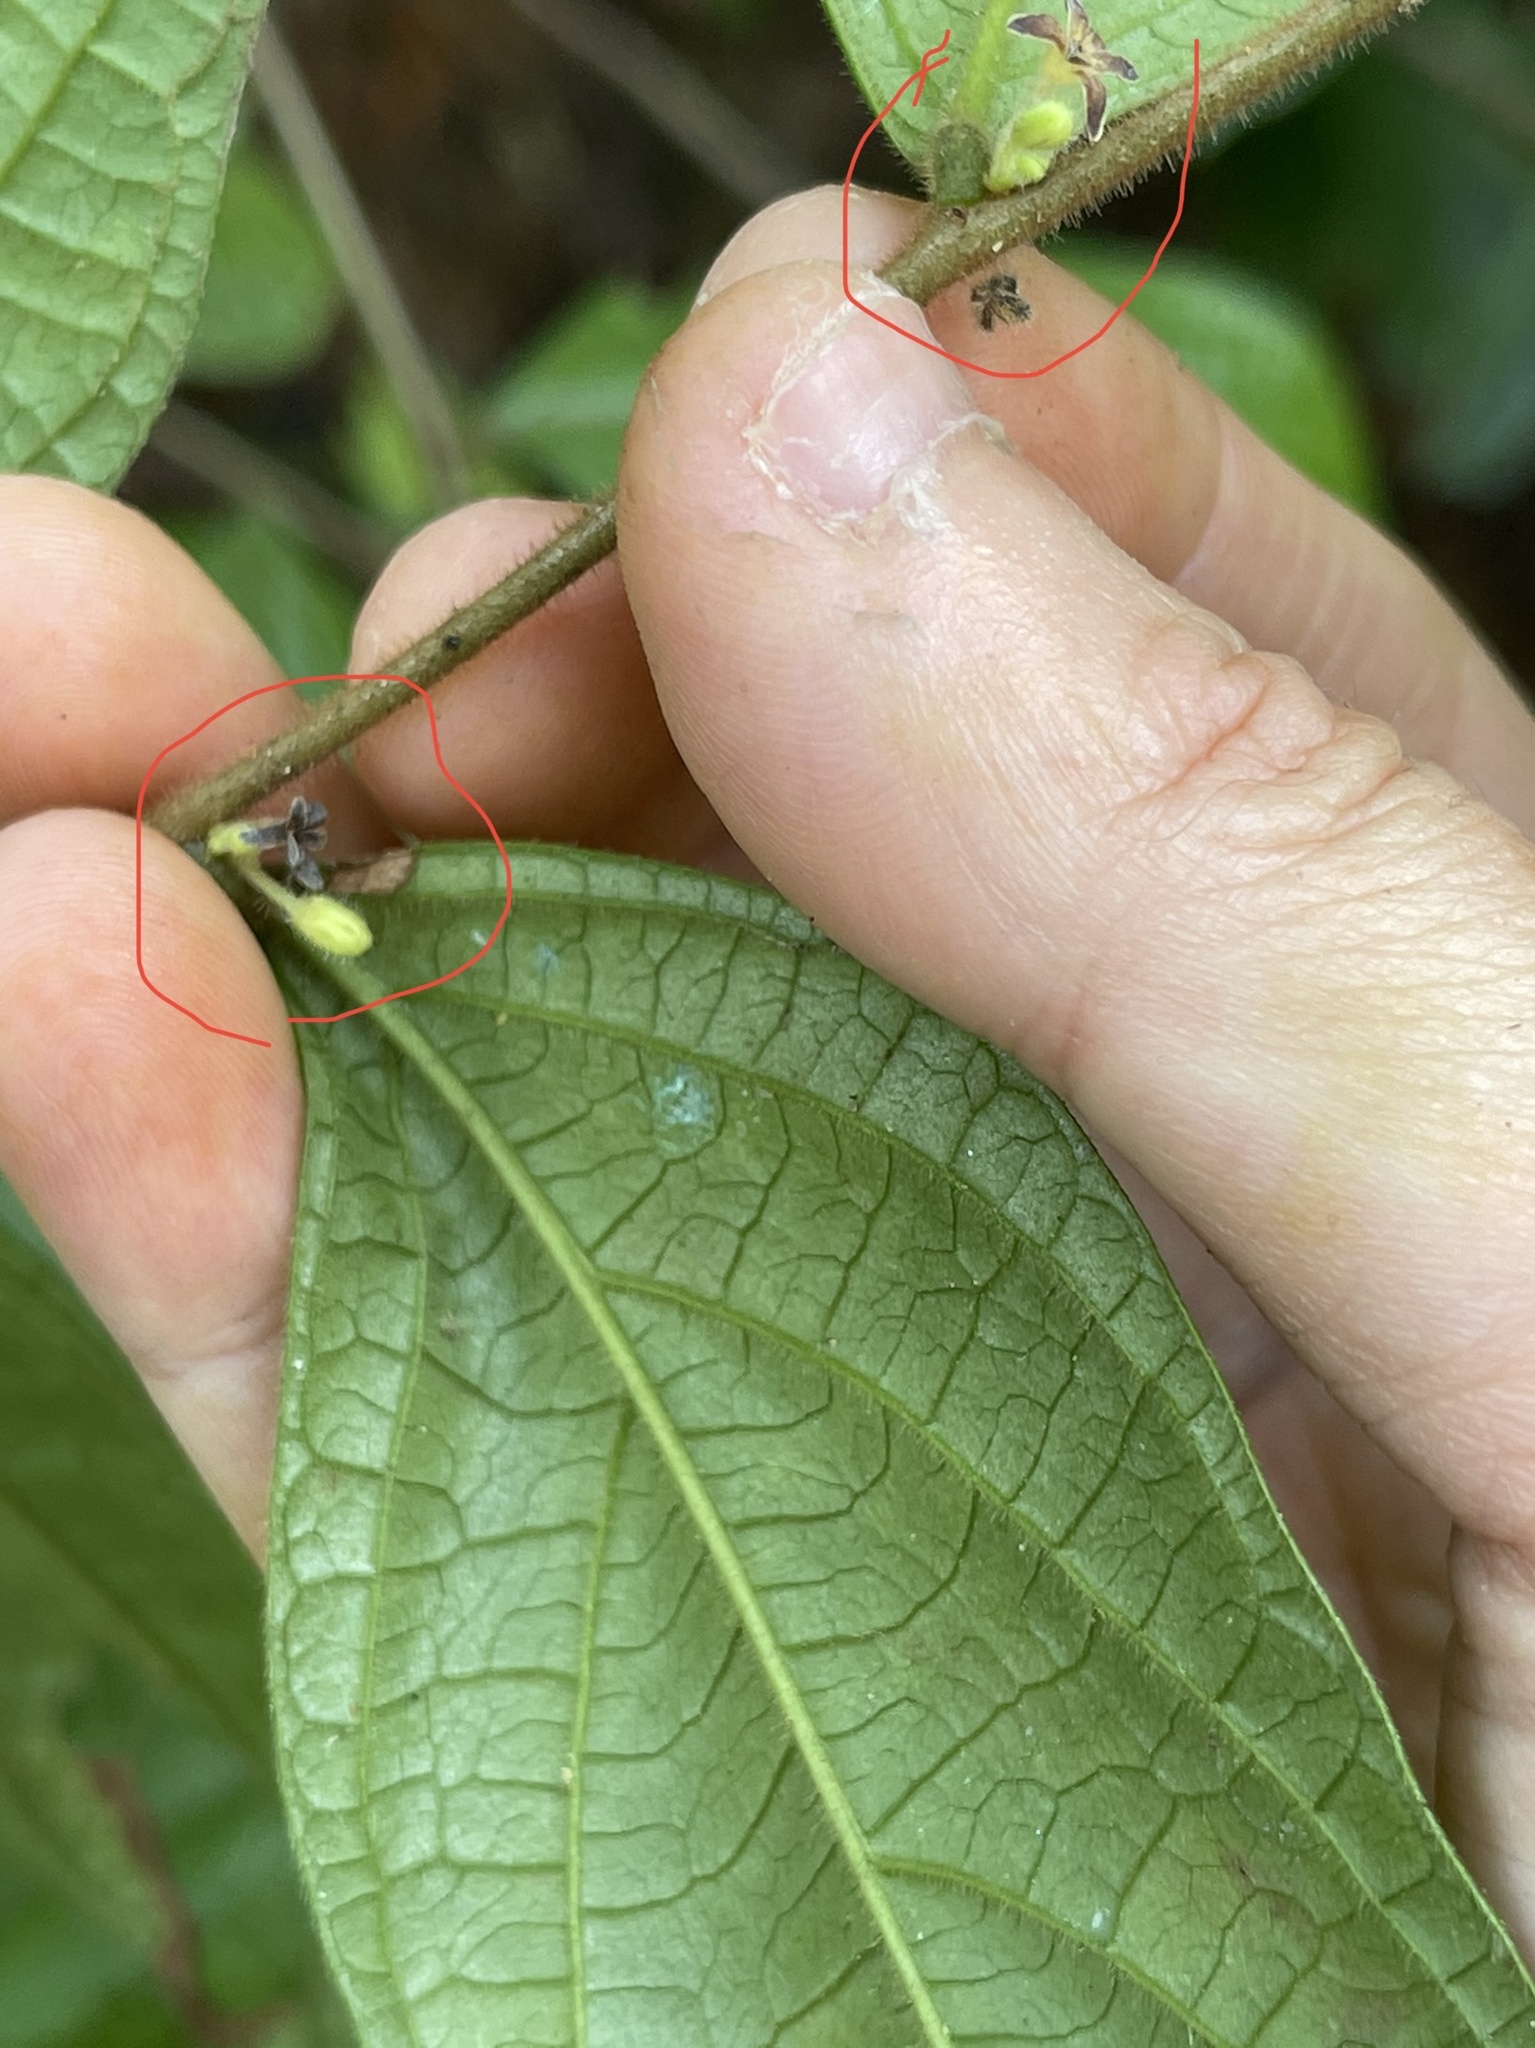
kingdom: Plantae
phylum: Tracheophyta
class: Magnoliopsida
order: Malpighiales
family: Phyllanthaceae
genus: Glochidion
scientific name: Glochidion eriocarpum
